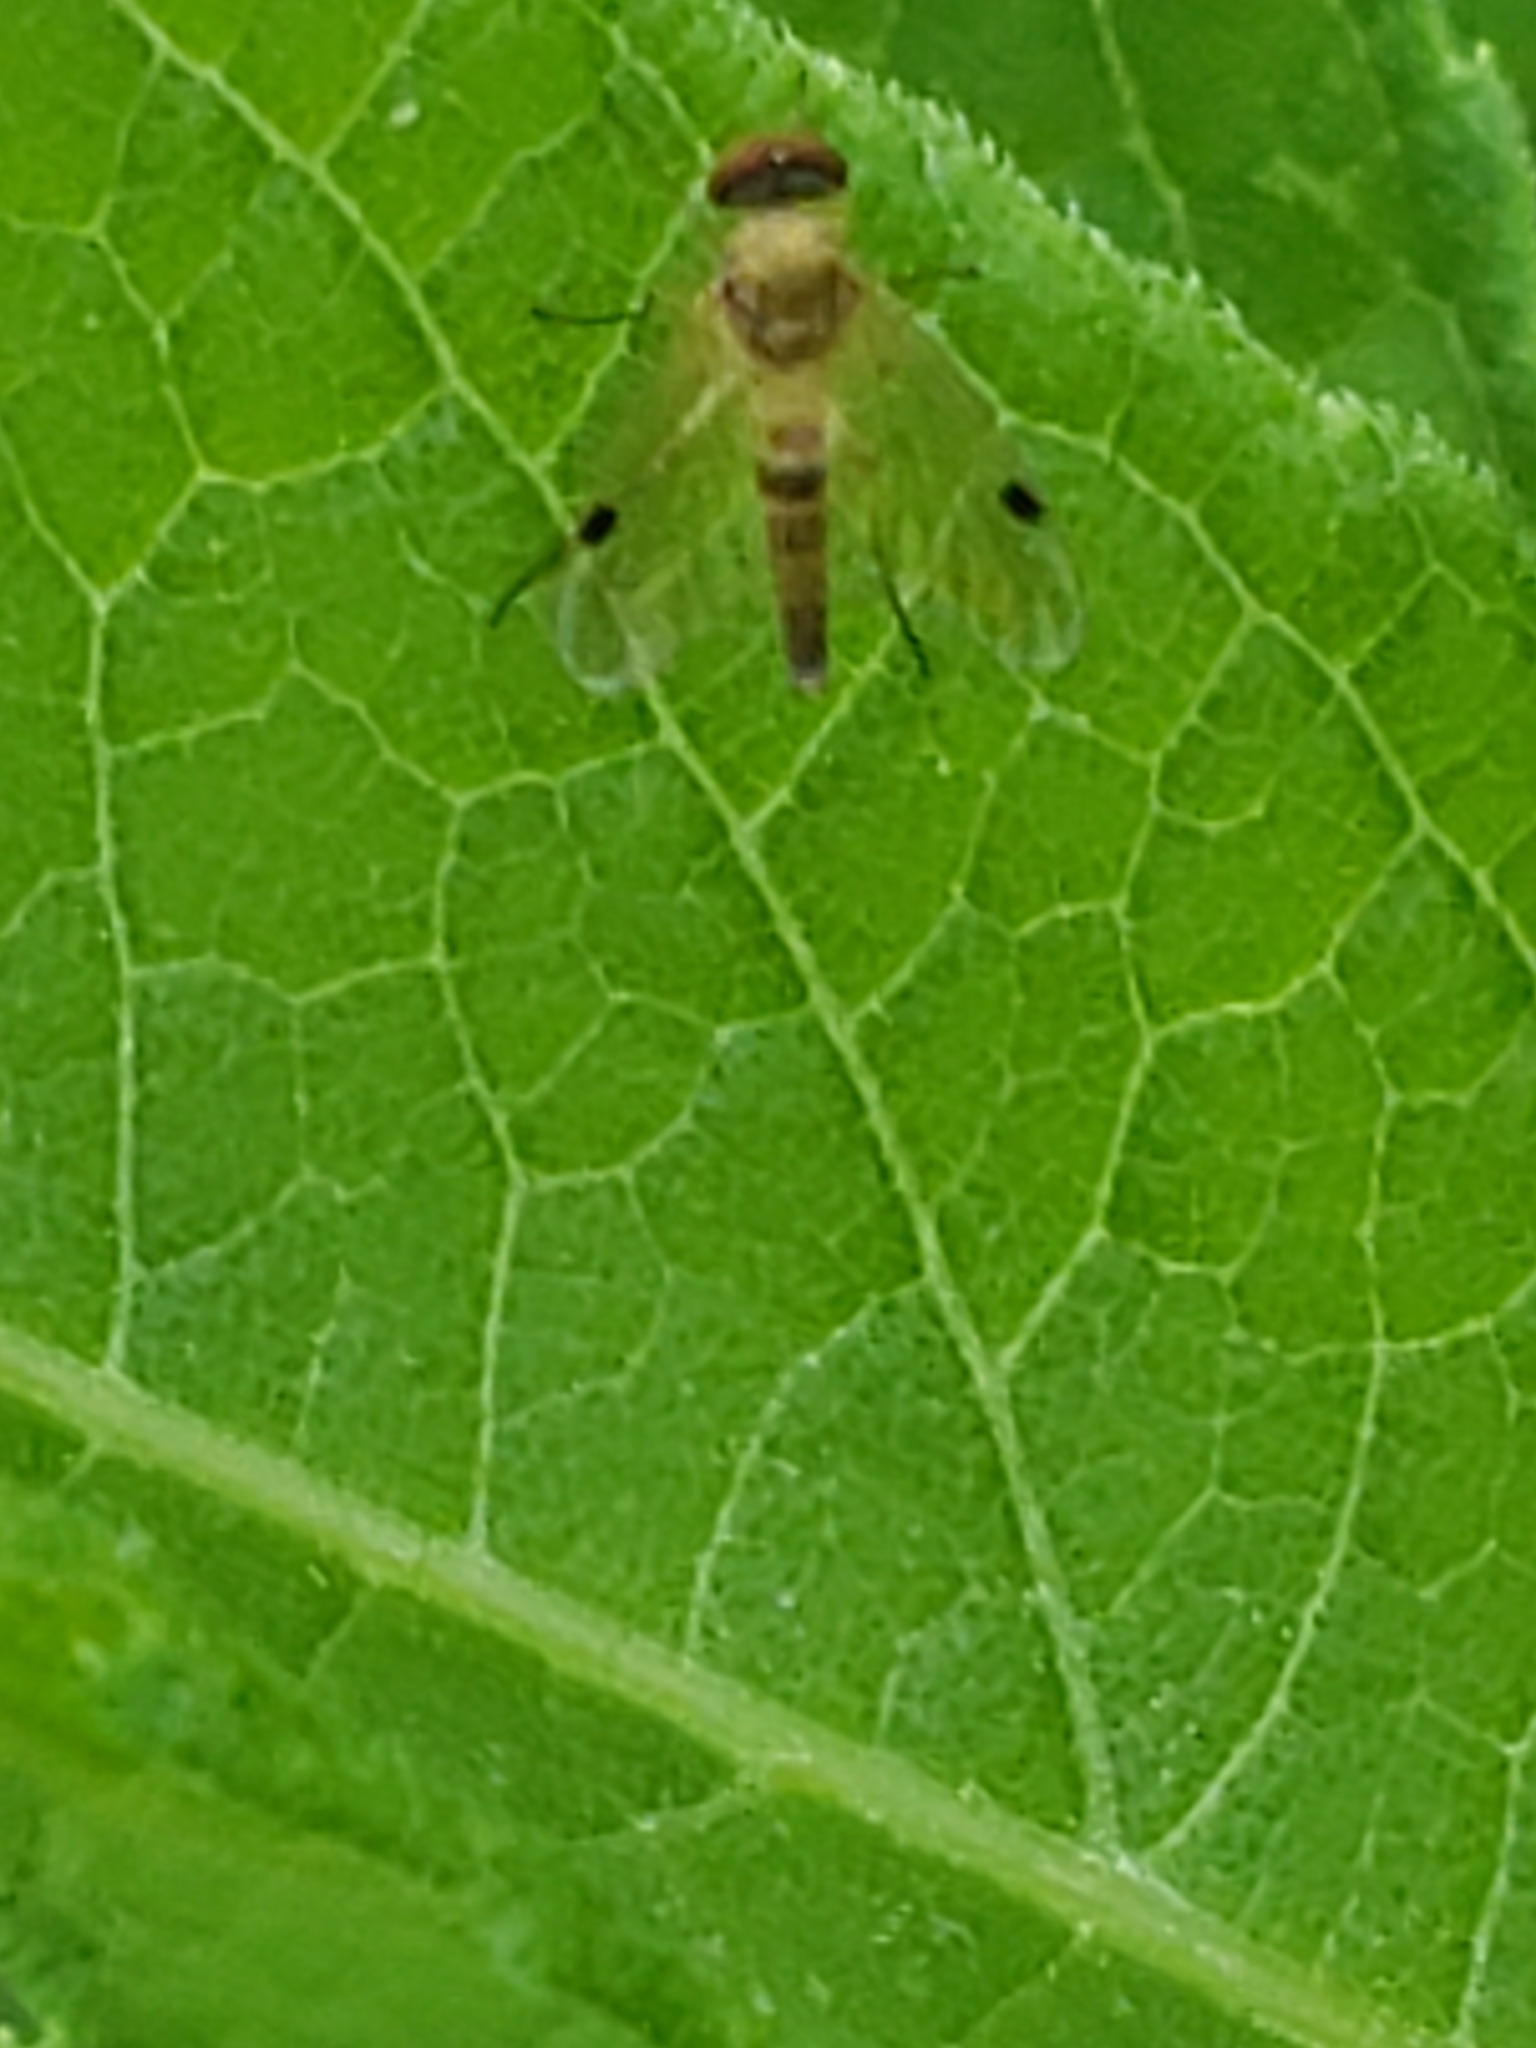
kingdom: Animalia
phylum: Arthropoda
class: Insecta
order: Diptera
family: Rhagionidae
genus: Chrysopilus
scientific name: Chrysopilus modestus
